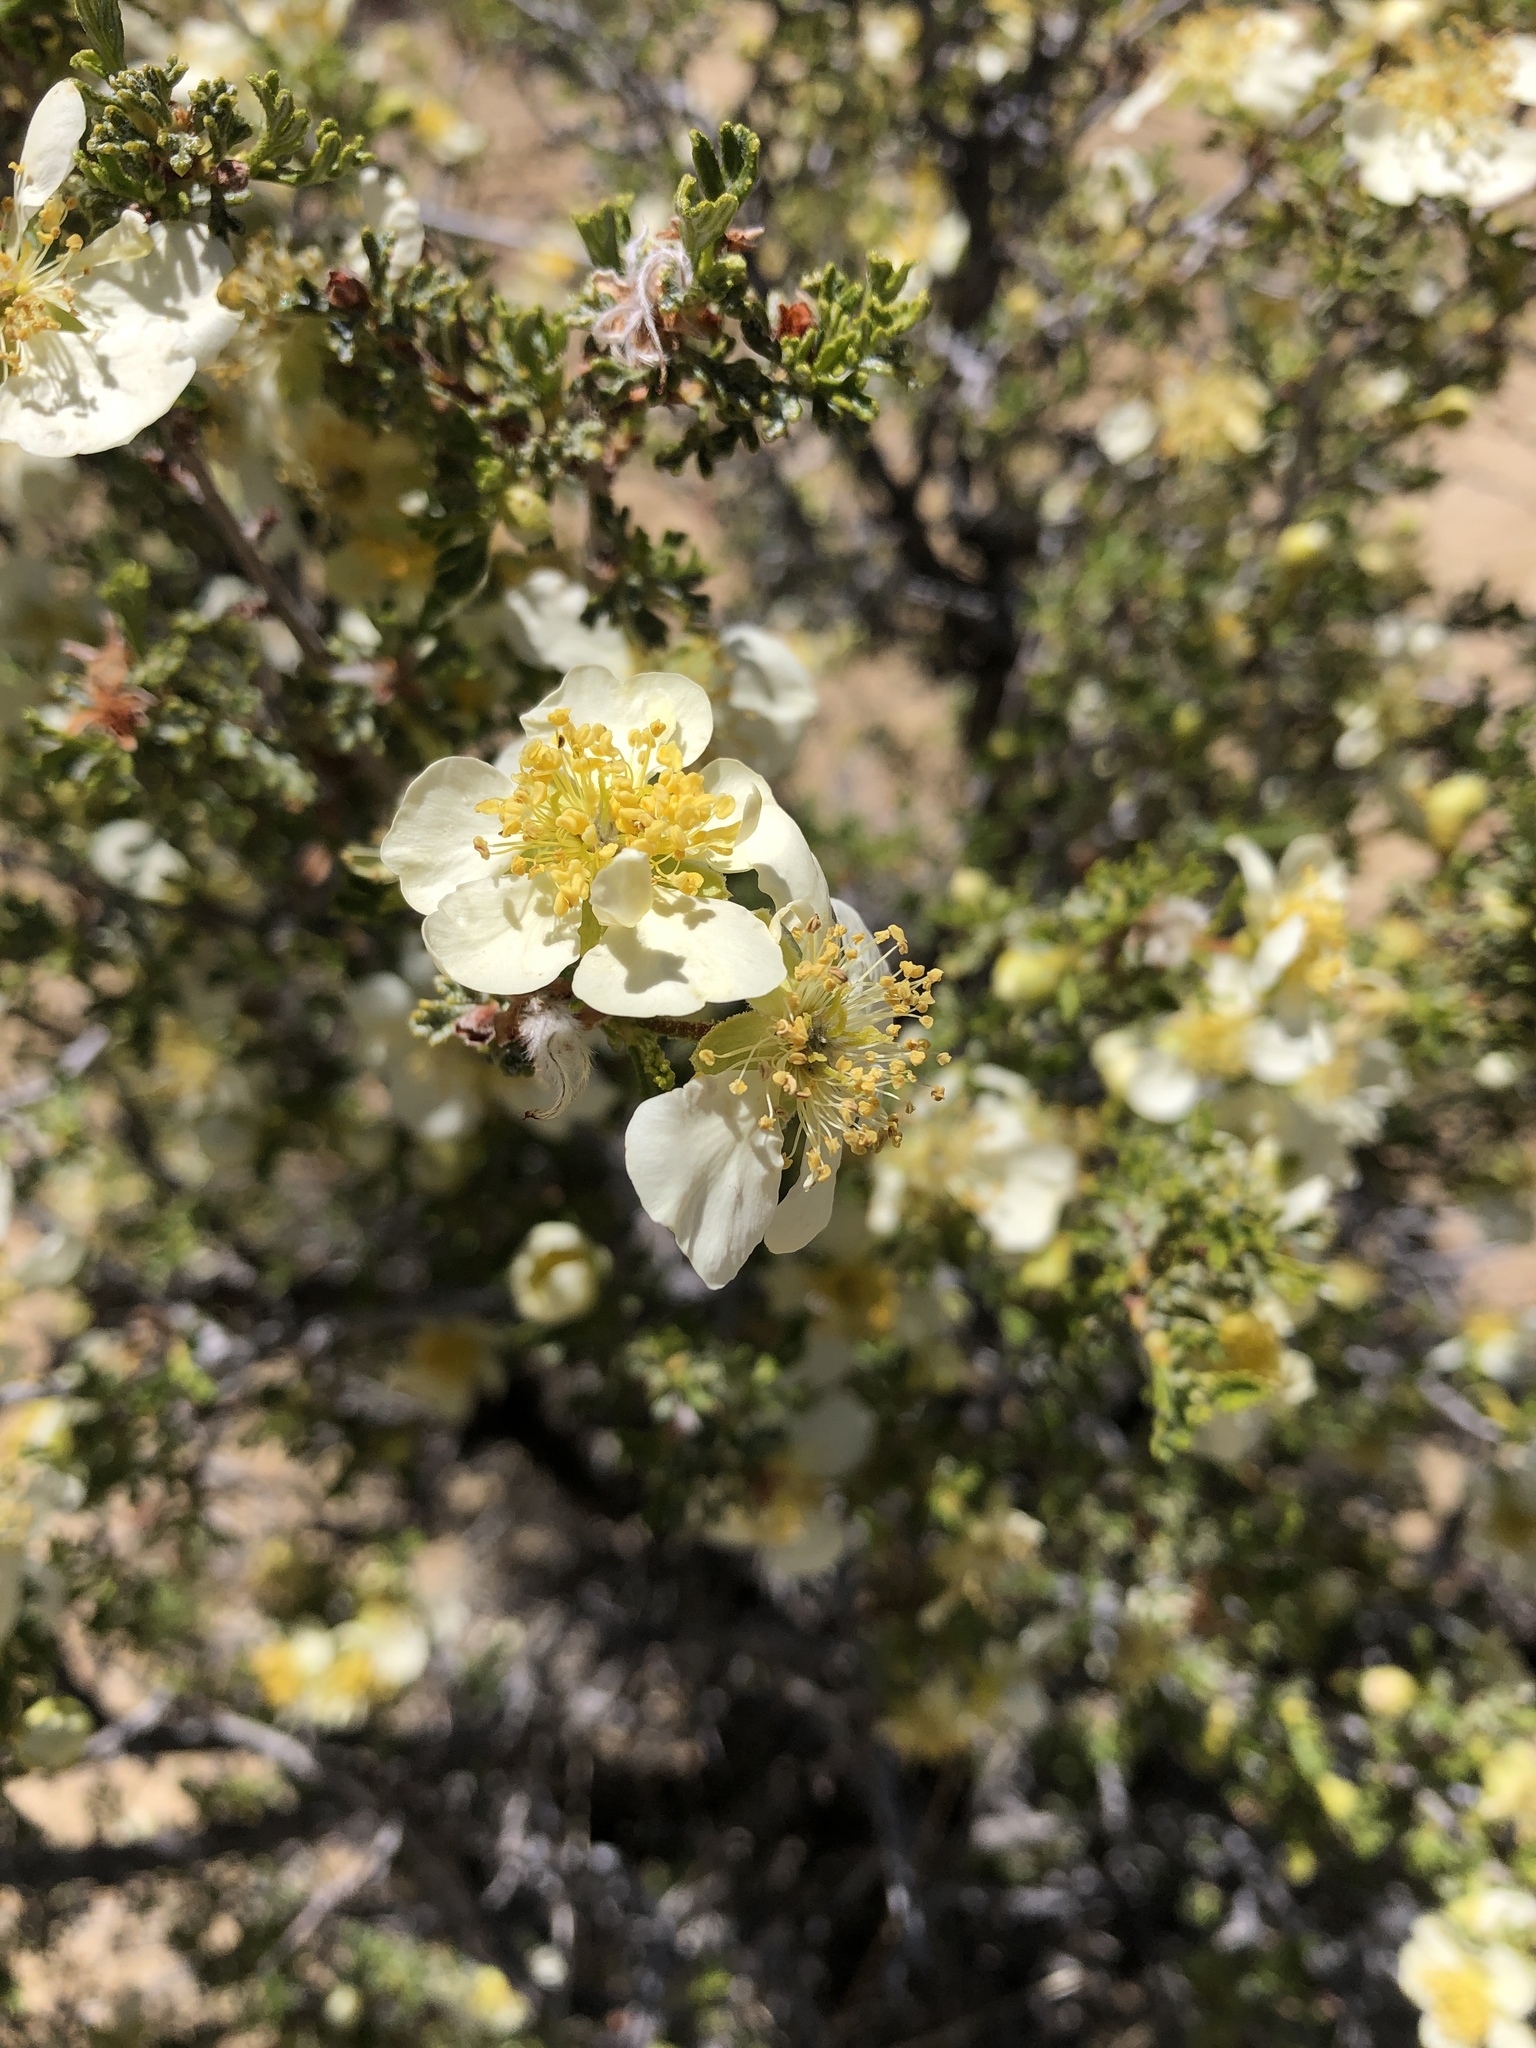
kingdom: Plantae
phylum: Tracheophyta
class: Magnoliopsida
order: Rosales
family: Rosaceae
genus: Purshia
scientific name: Purshia stansburiana
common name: Stansbury's cliffrose
